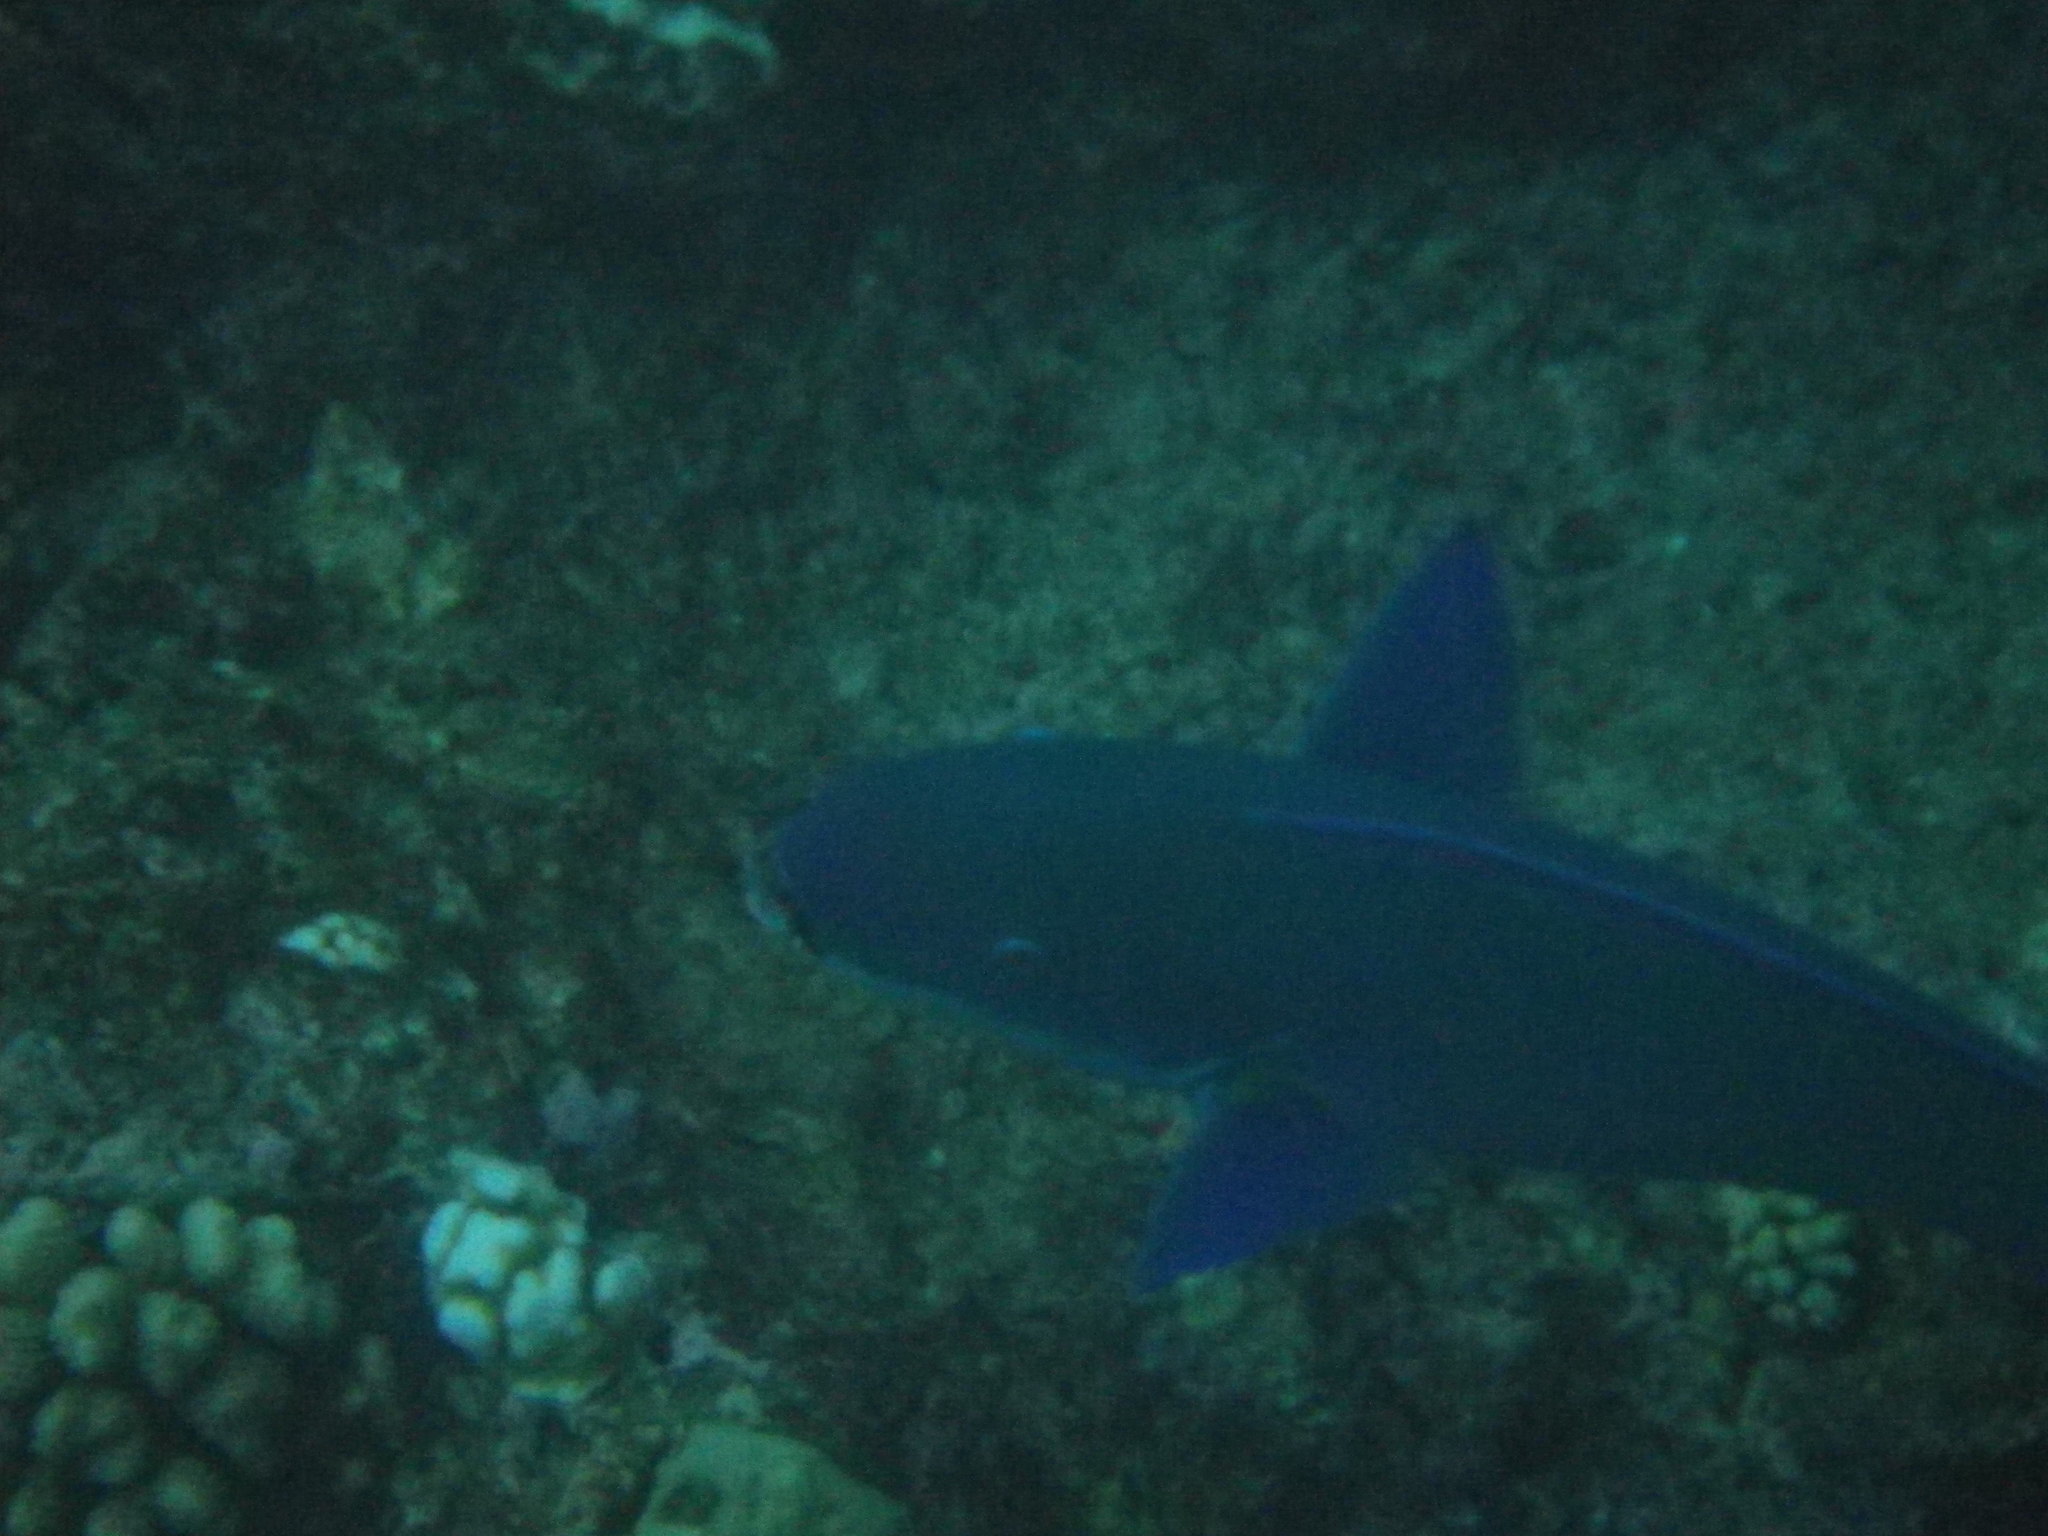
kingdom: Animalia
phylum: Chordata
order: Perciformes
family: Scaridae
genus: Chlorurus
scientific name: Chlorurus microrhinos
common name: Steephead parrotfish
